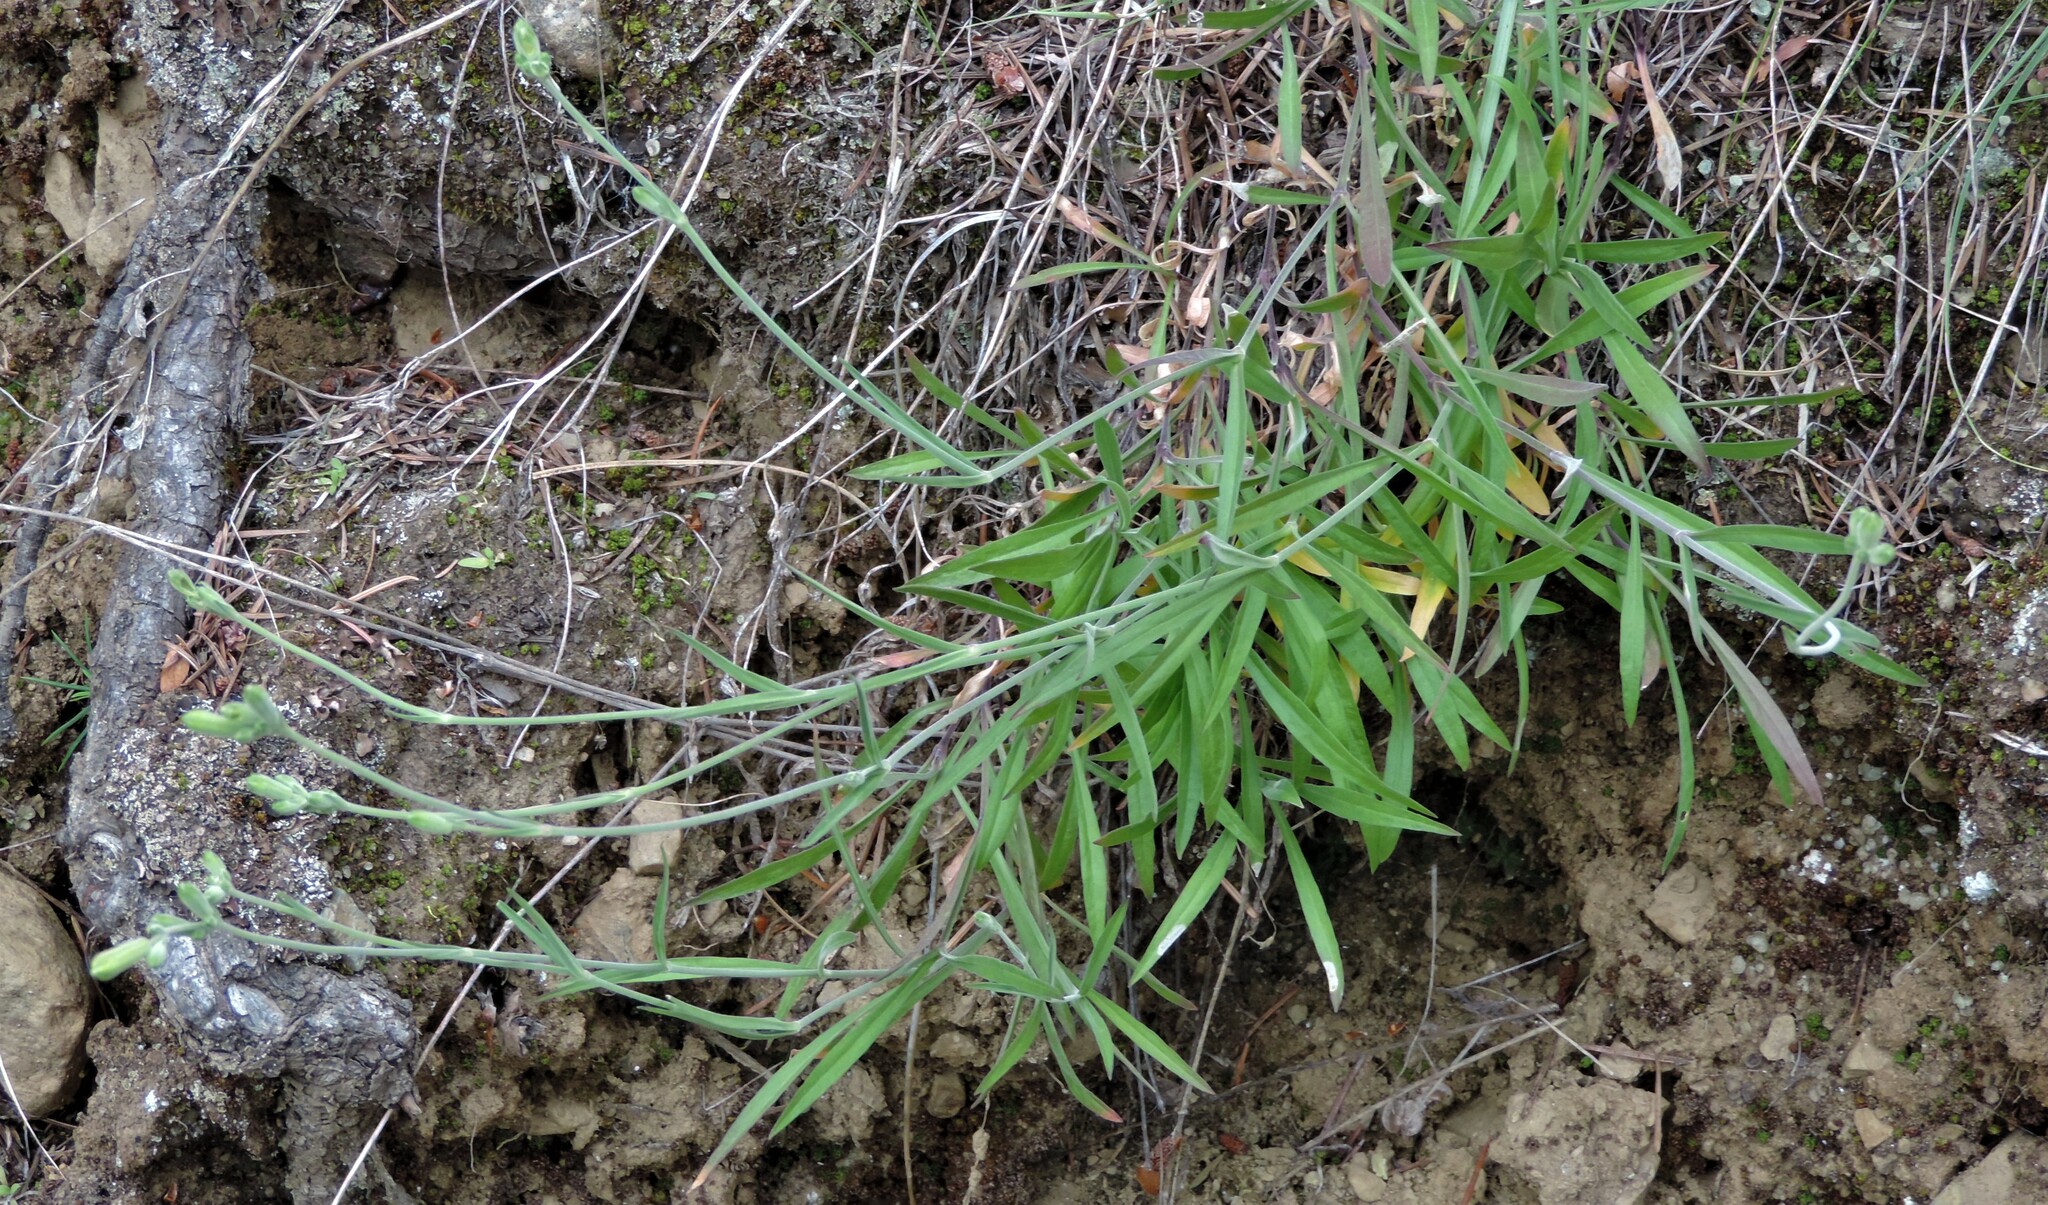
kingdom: Plantae
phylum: Tracheophyta
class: Magnoliopsida
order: Caryophyllales
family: Caryophyllaceae
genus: Silene
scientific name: Silene douglasii
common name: Douglas's catchfly
